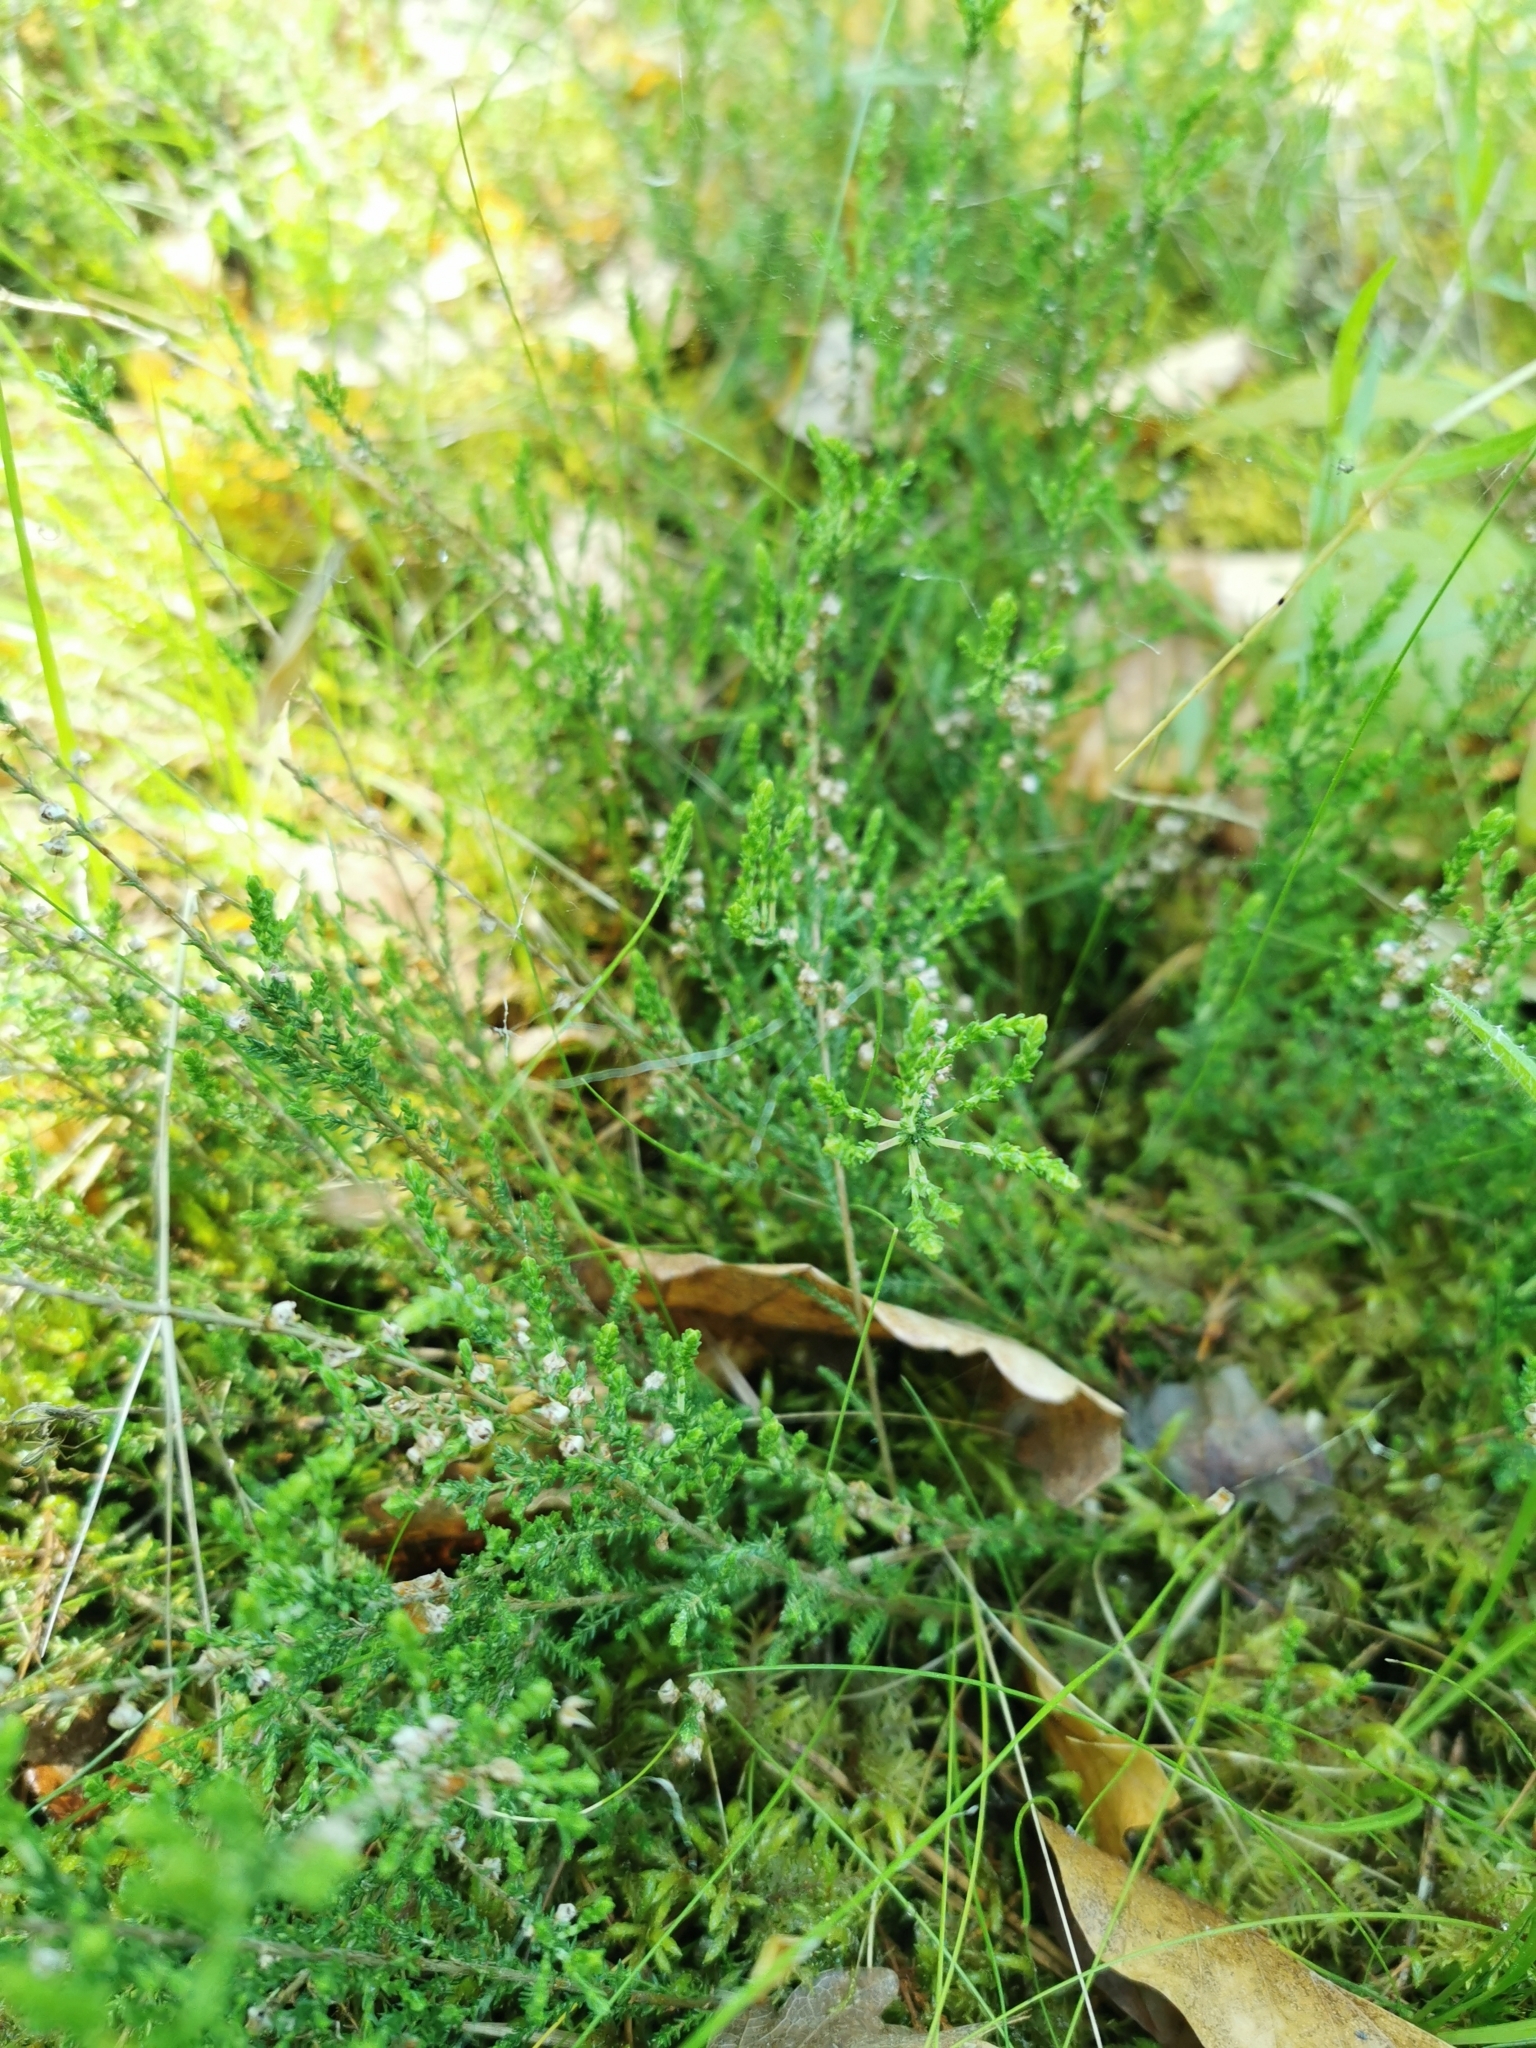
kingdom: Plantae
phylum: Tracheophyta
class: Magnoliopsida
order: Ericales
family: Ericaceae
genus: Calluna
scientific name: Calluna vulgaris
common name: Heather
